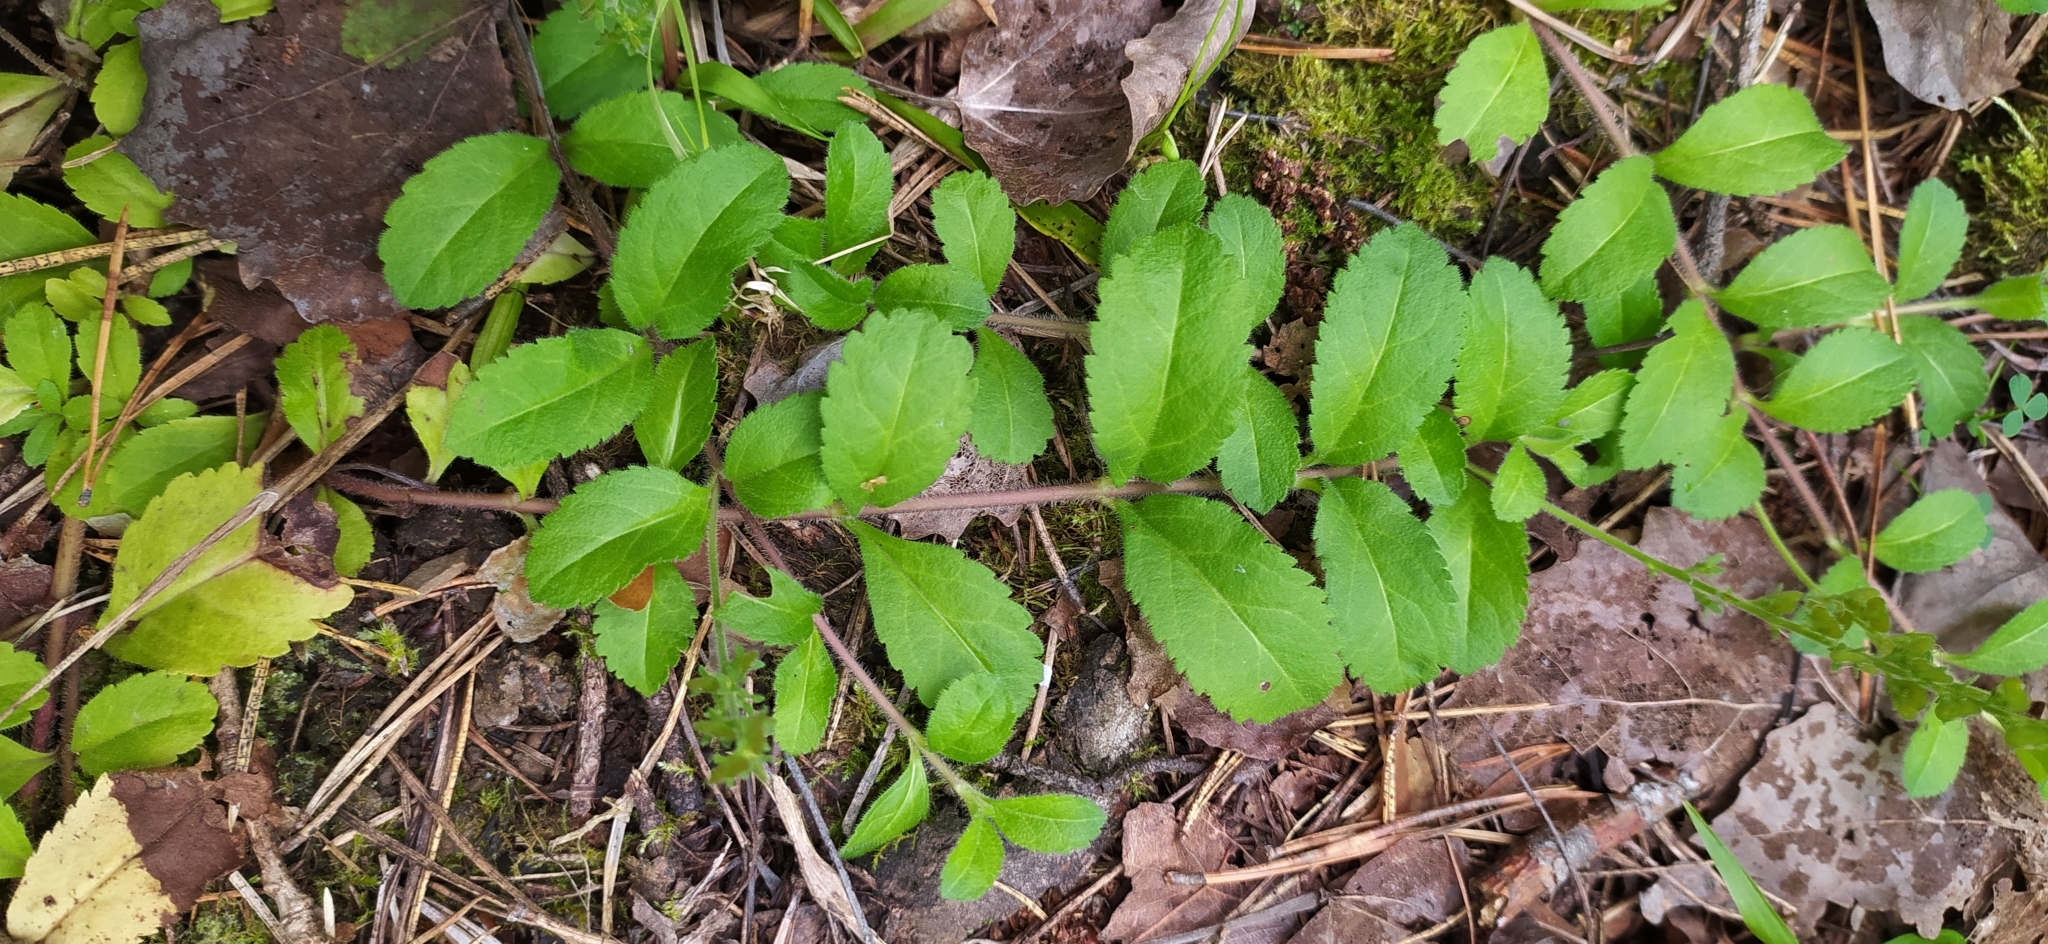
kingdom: Plantae
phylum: Tracheophyta
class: Magnoliopsida
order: Lamiales
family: Plantaginaceae
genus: Veronica
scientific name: Veronica officinalis
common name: Common speedwell
